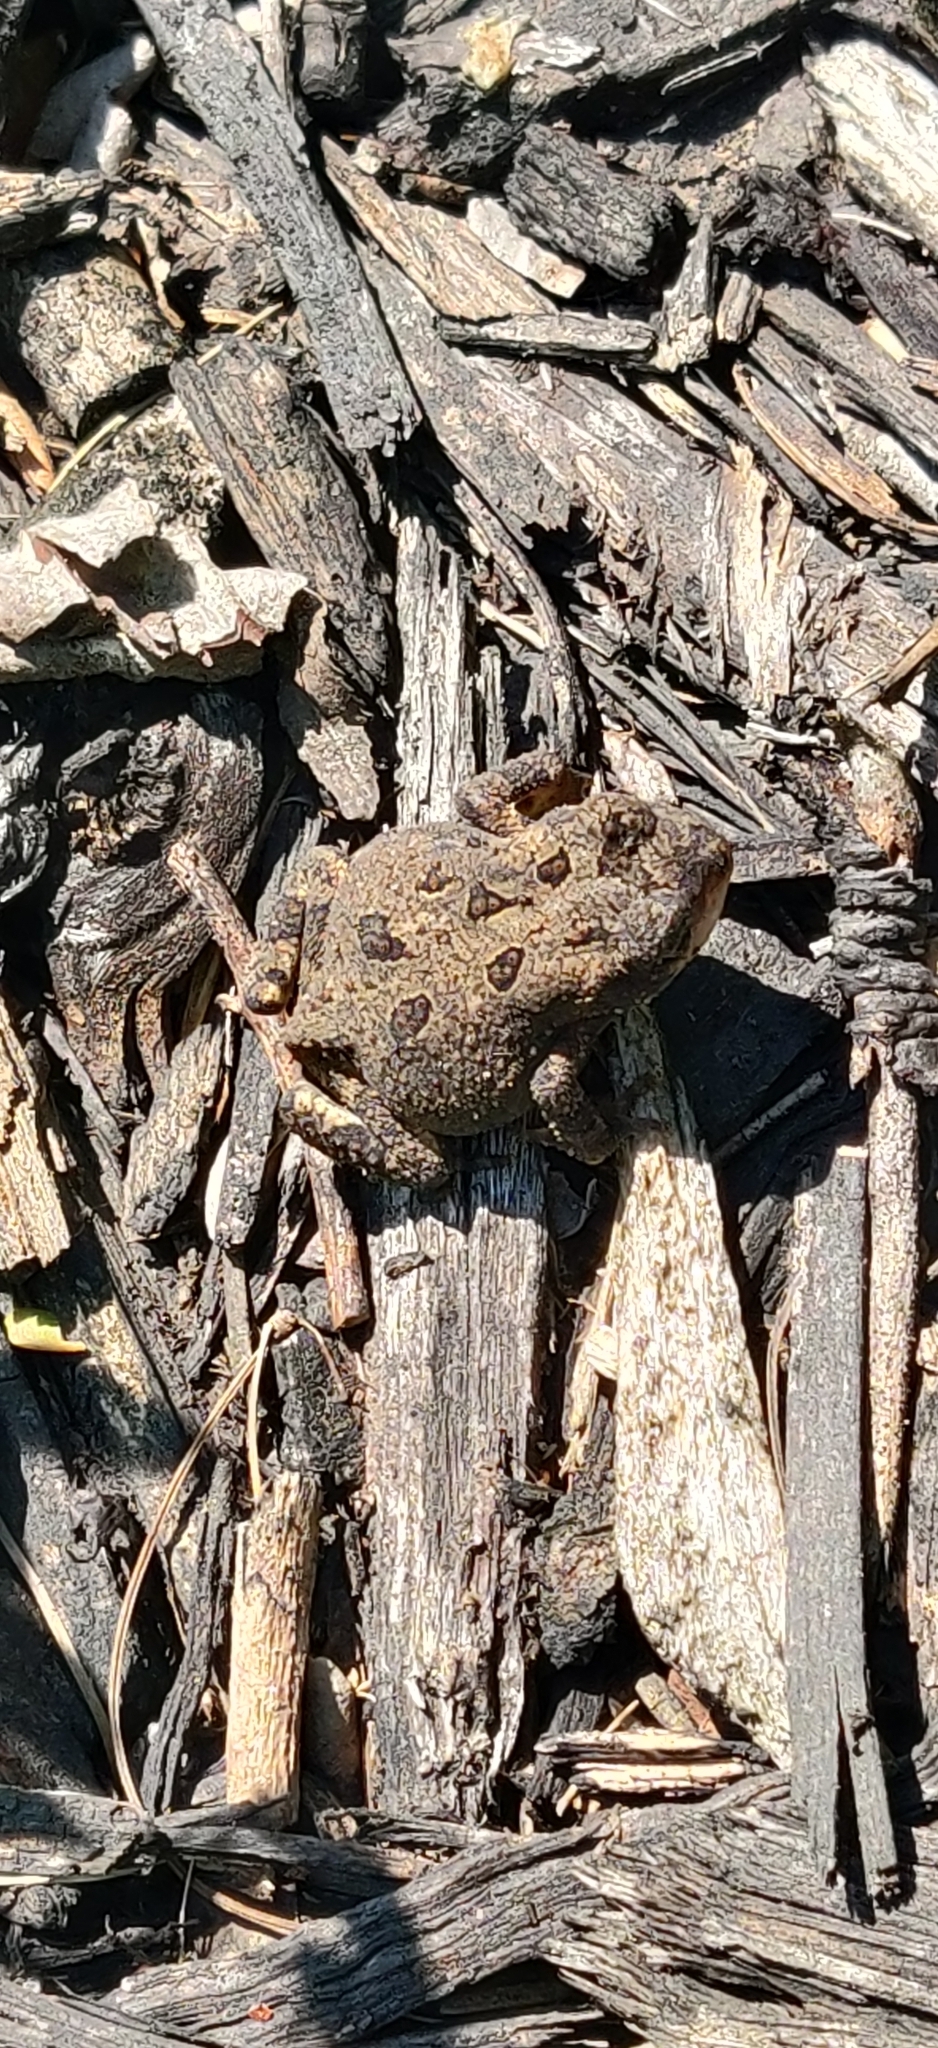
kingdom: Animalia
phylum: Chordata
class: Amphibia
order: Anura
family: Bufonidae
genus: Anaxyrus
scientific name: Anaxyrus fowleri
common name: Fowler's toad
